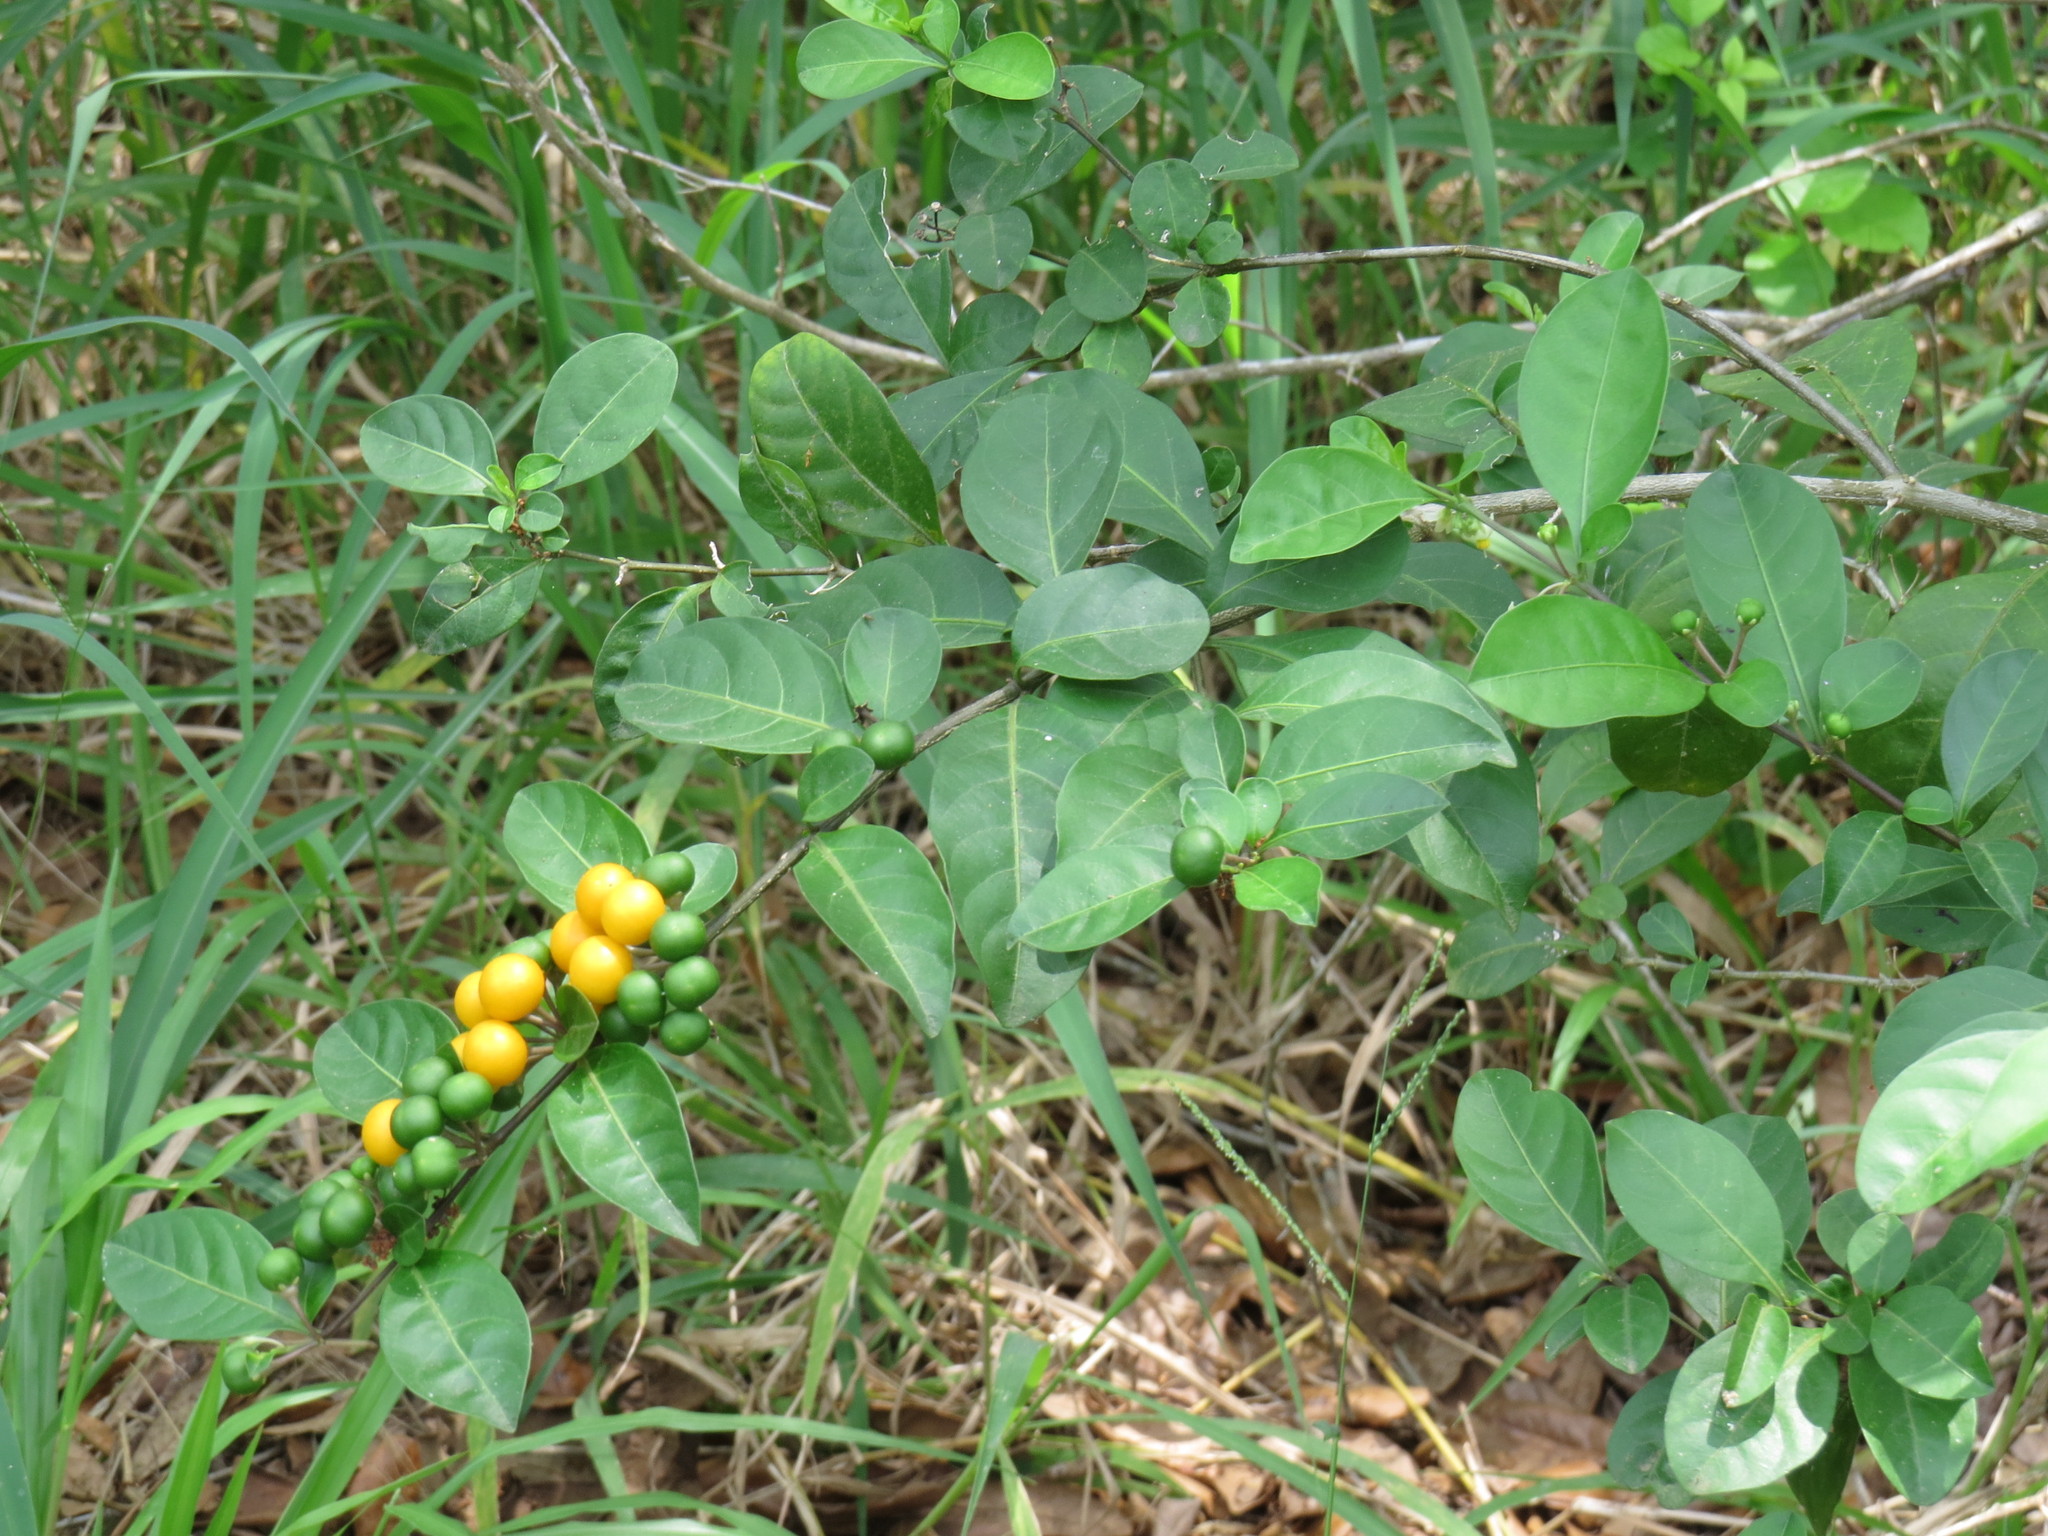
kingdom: Plantae
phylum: Tracheophyta
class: Magnoliopsida
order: Solanales
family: Solanaceae
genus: Solanum
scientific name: Solanum diphyllum
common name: Twoleaf nightshade
